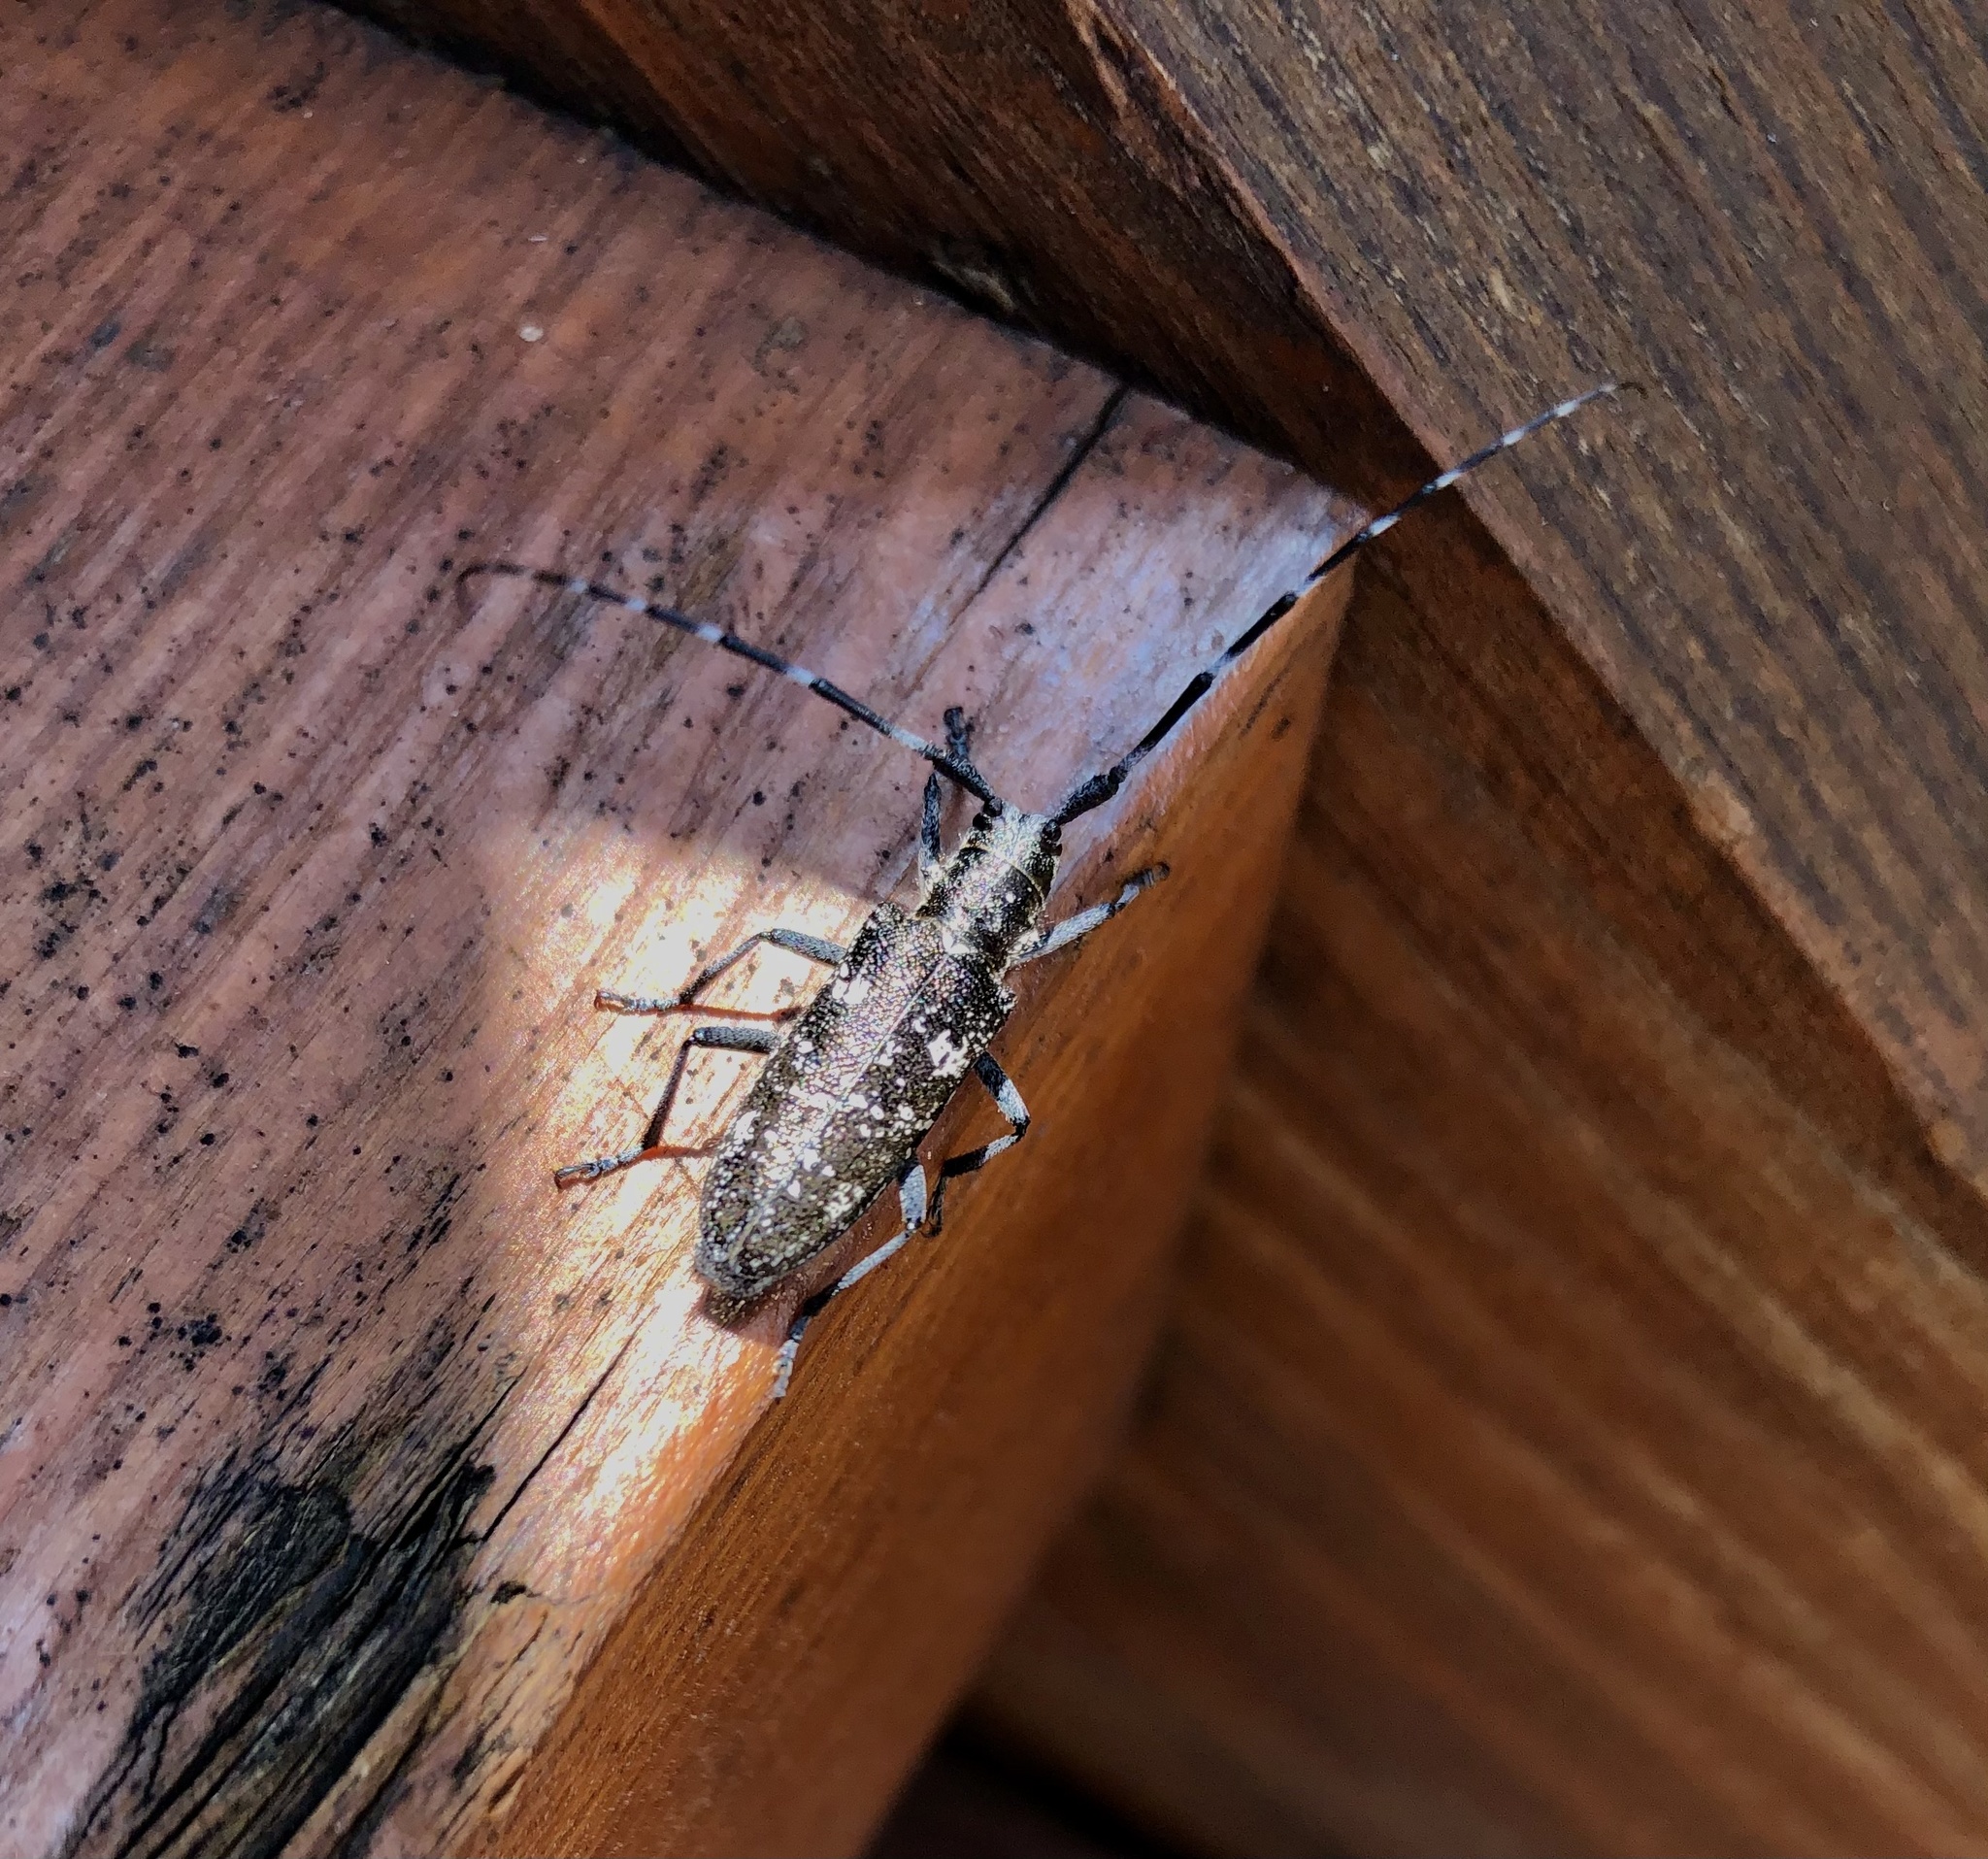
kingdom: Animalia
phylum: Arthropoda
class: Insecta
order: Coleoptera
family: Cerambycidae
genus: Monochamus
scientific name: Monochamus scutellatus
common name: White-spotted sawyer beetle
